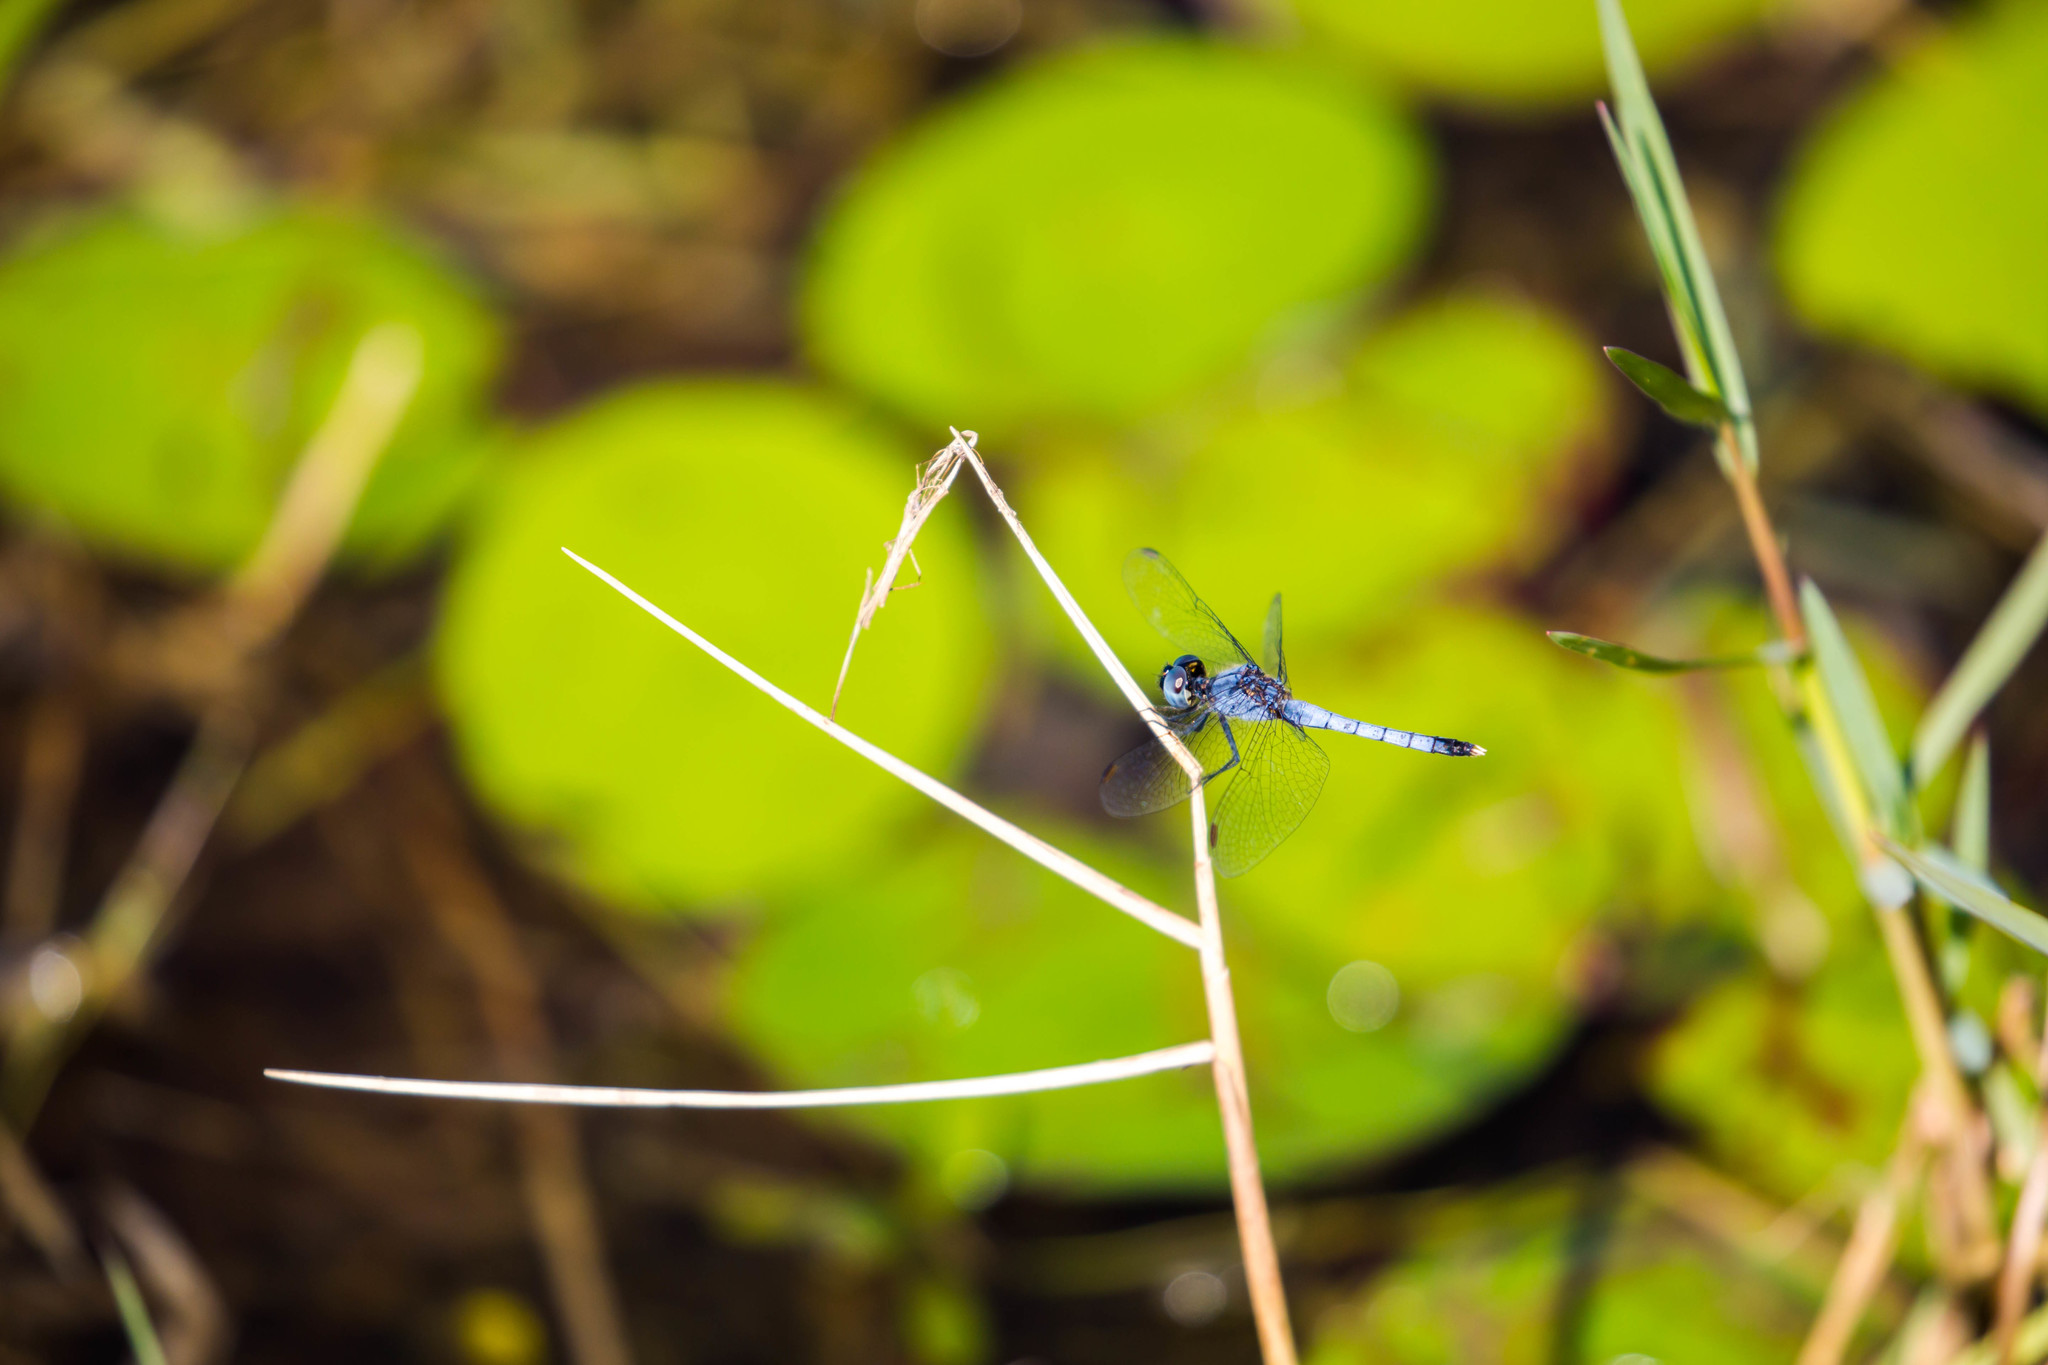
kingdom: Animalia
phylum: Arthropoda
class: Insecta
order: Odonata
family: Libellulidae
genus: Erythrodiplax
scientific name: Erythrodiplax minuscula
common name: Little blue dragonlet
